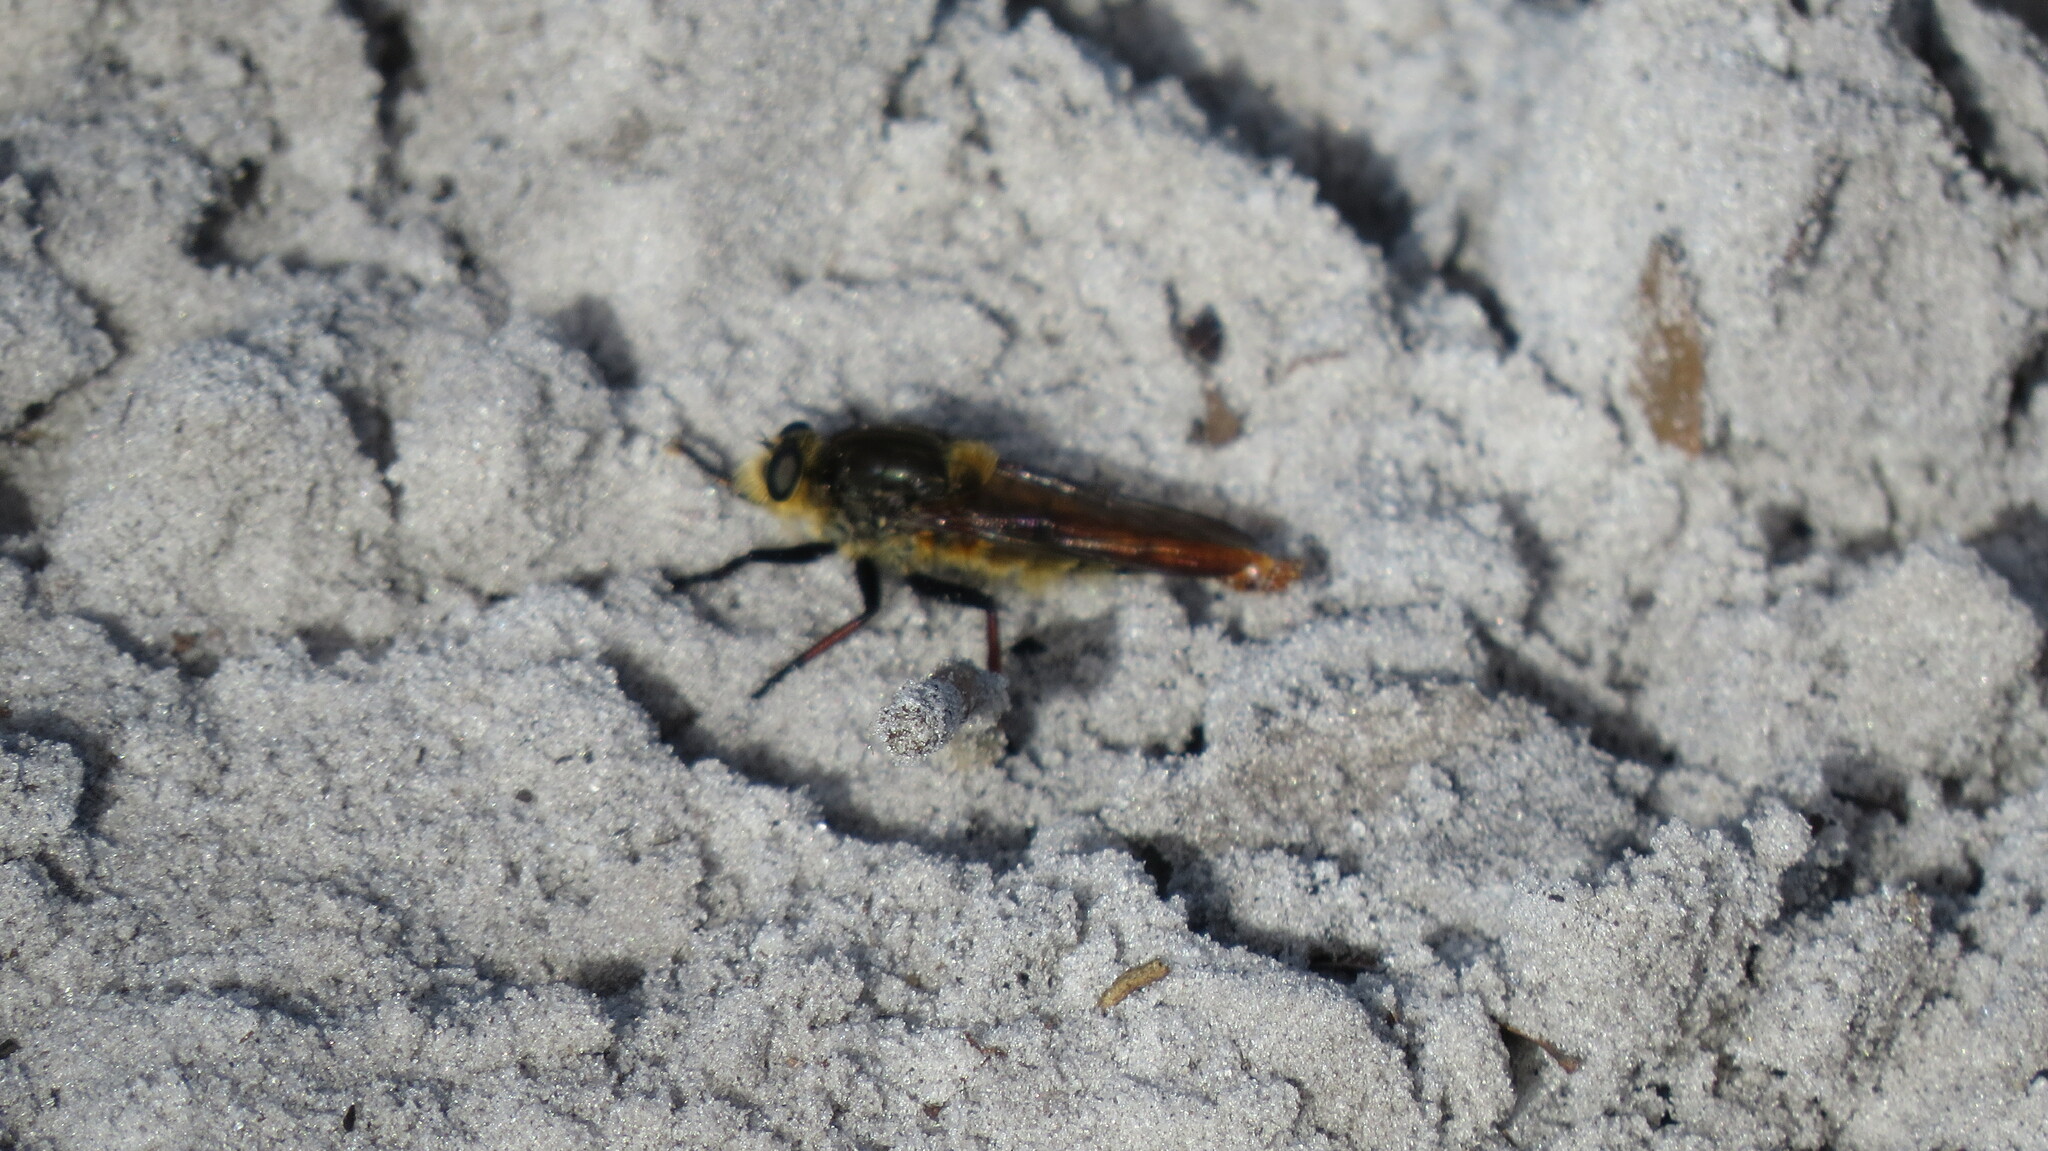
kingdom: Animalia
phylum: Arthropoda
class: Insecta
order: Diptera
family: Asilidae
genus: Proctacanthus
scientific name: Proctacanthus fulviventris
